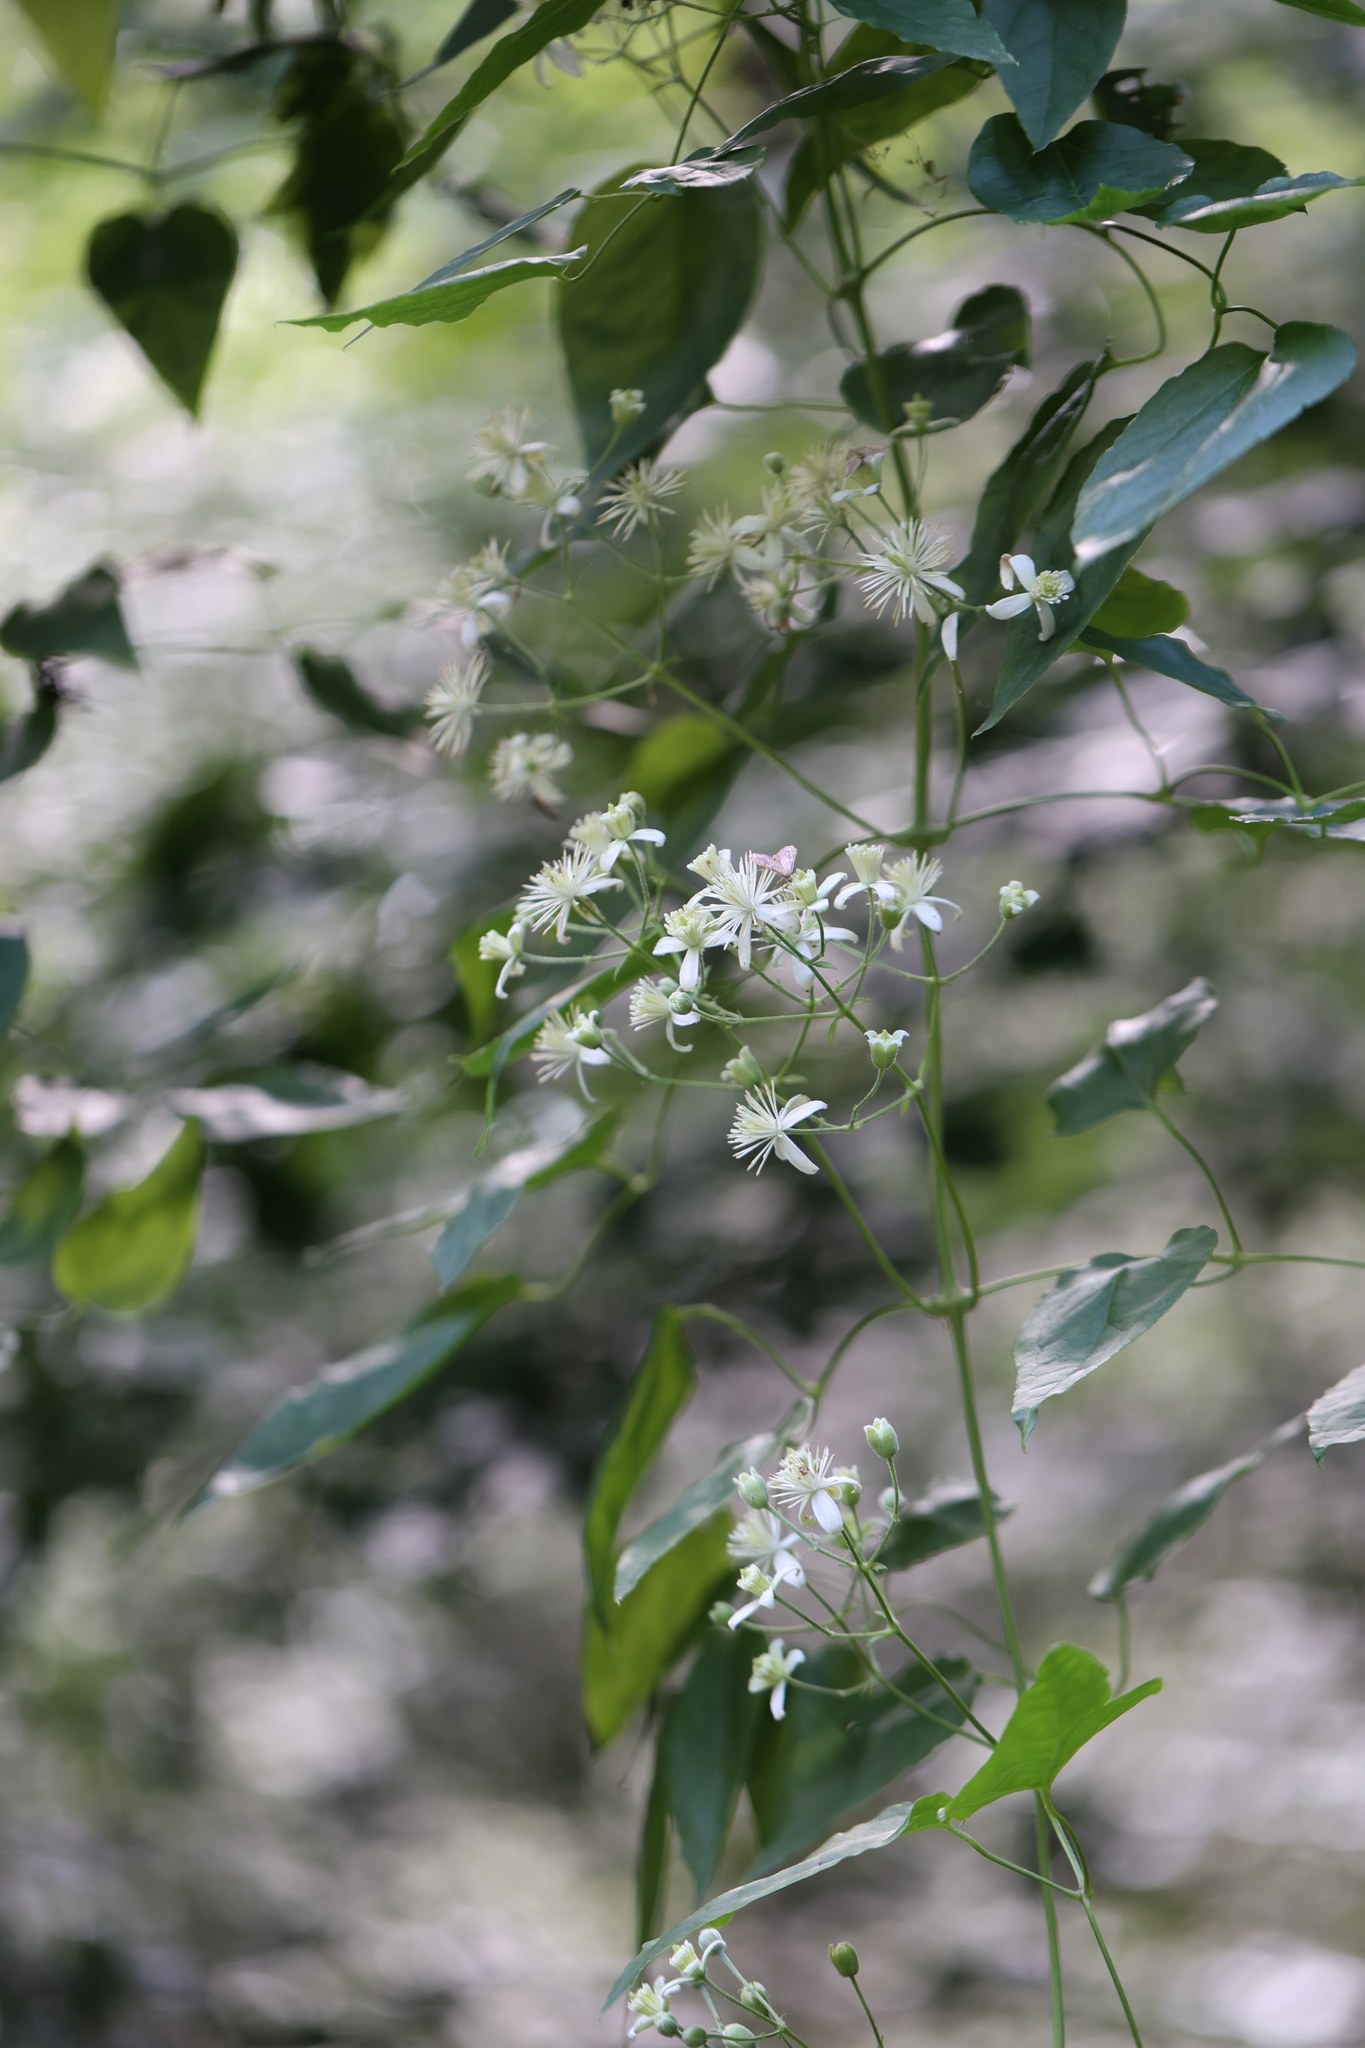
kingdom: Plantae
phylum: Tracheophyta
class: Magnoliopsida
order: Ranunculales
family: Ranunculaceae
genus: Clematis
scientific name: Clematis vitalba
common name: Evergreen clematis
